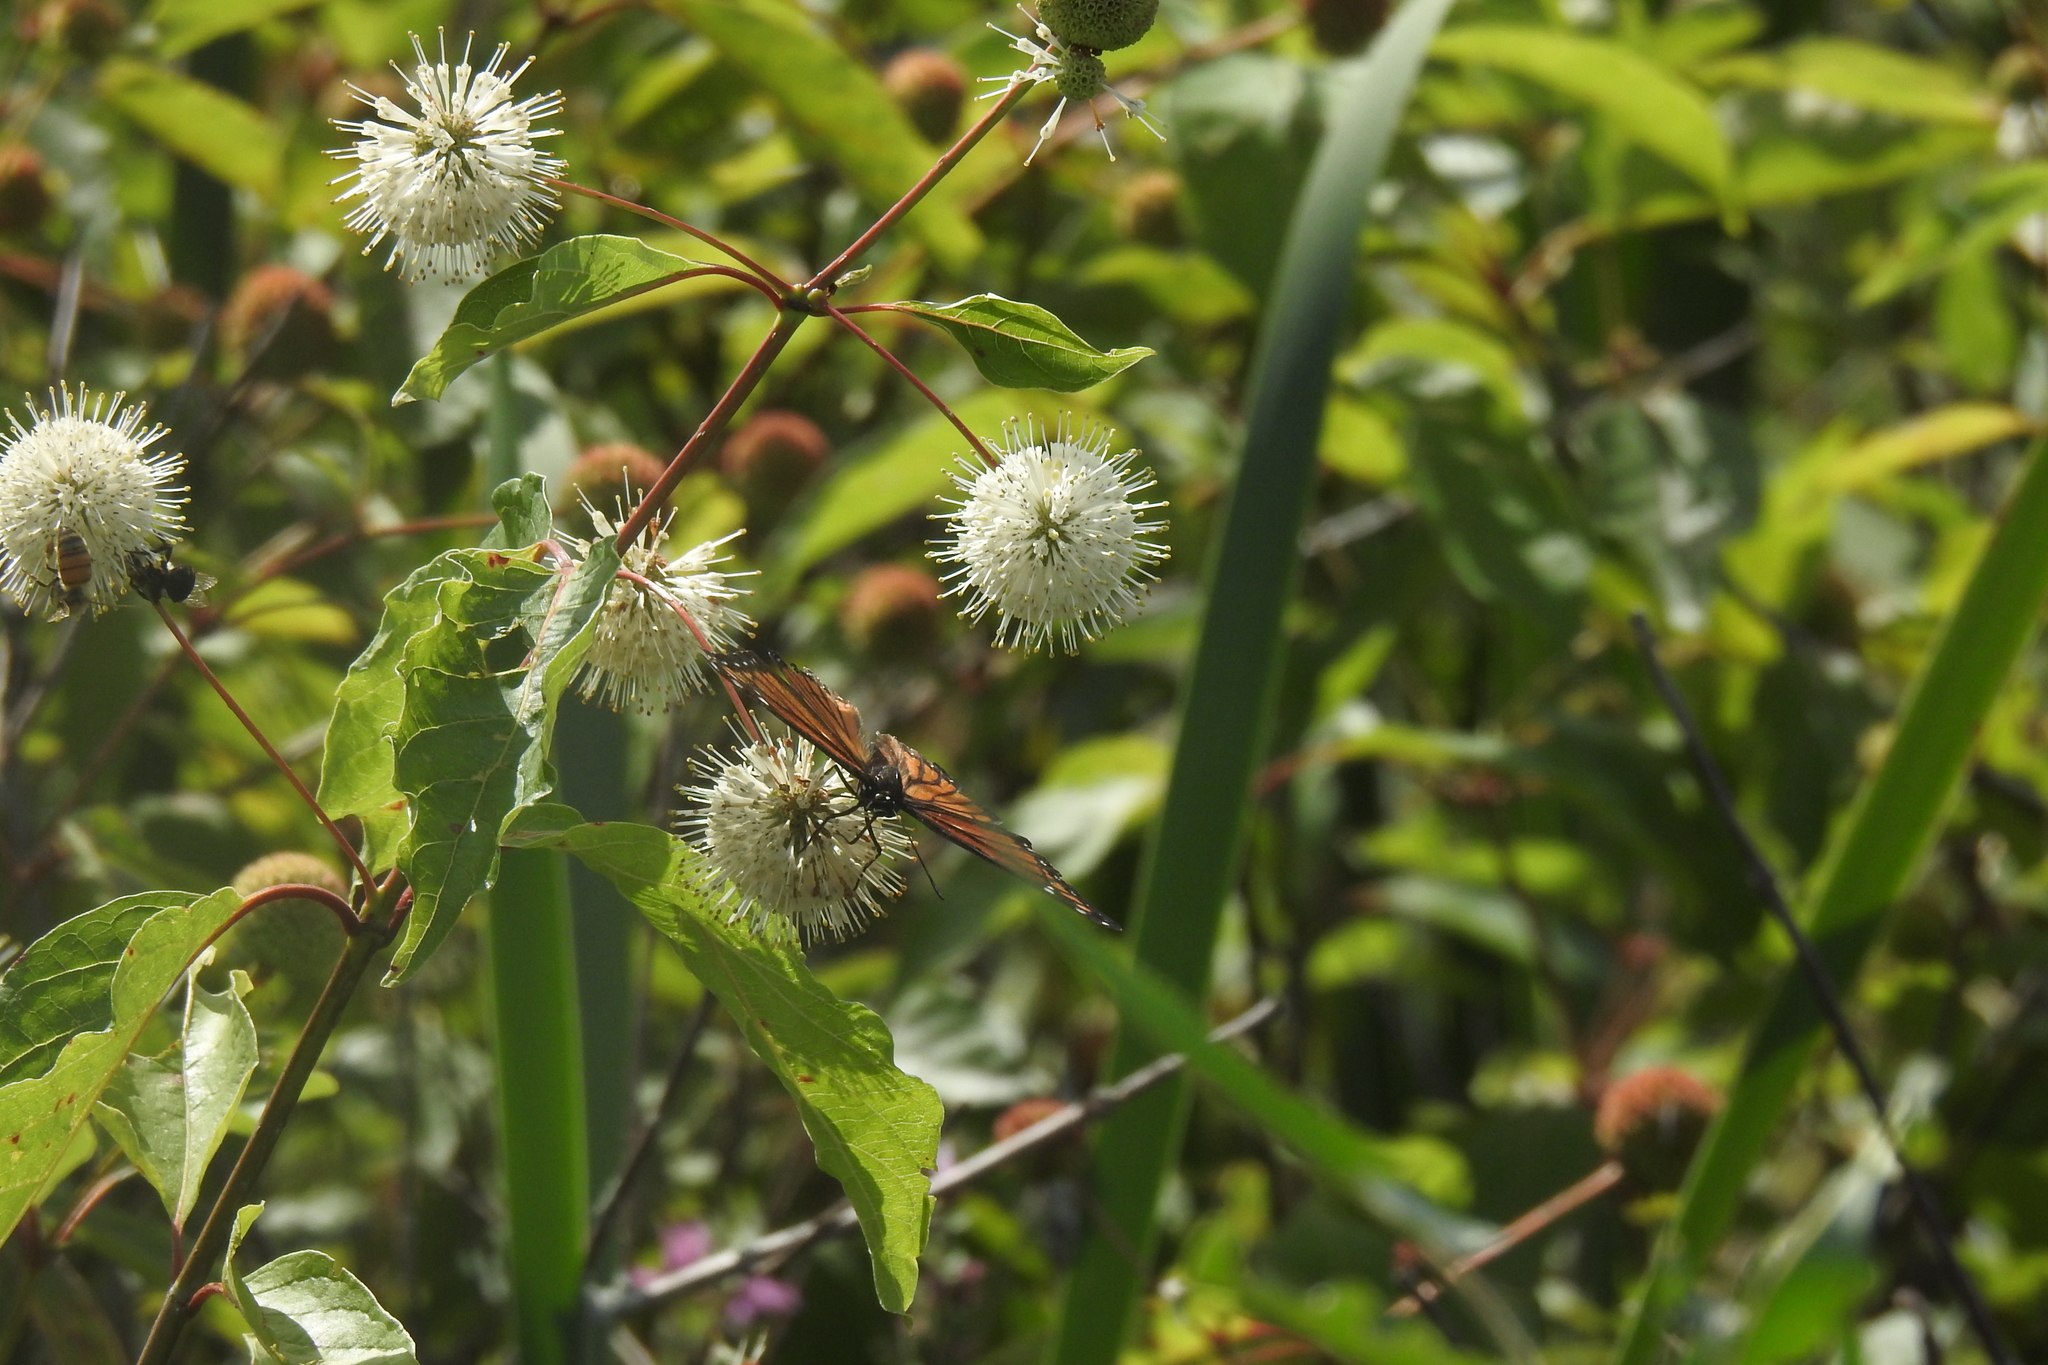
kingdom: Animalia
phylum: Arthropoda
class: Insecta
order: Lepidoptera
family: Nymphalidae
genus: Limenitis
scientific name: Limenitis archippus
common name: Viceroy
